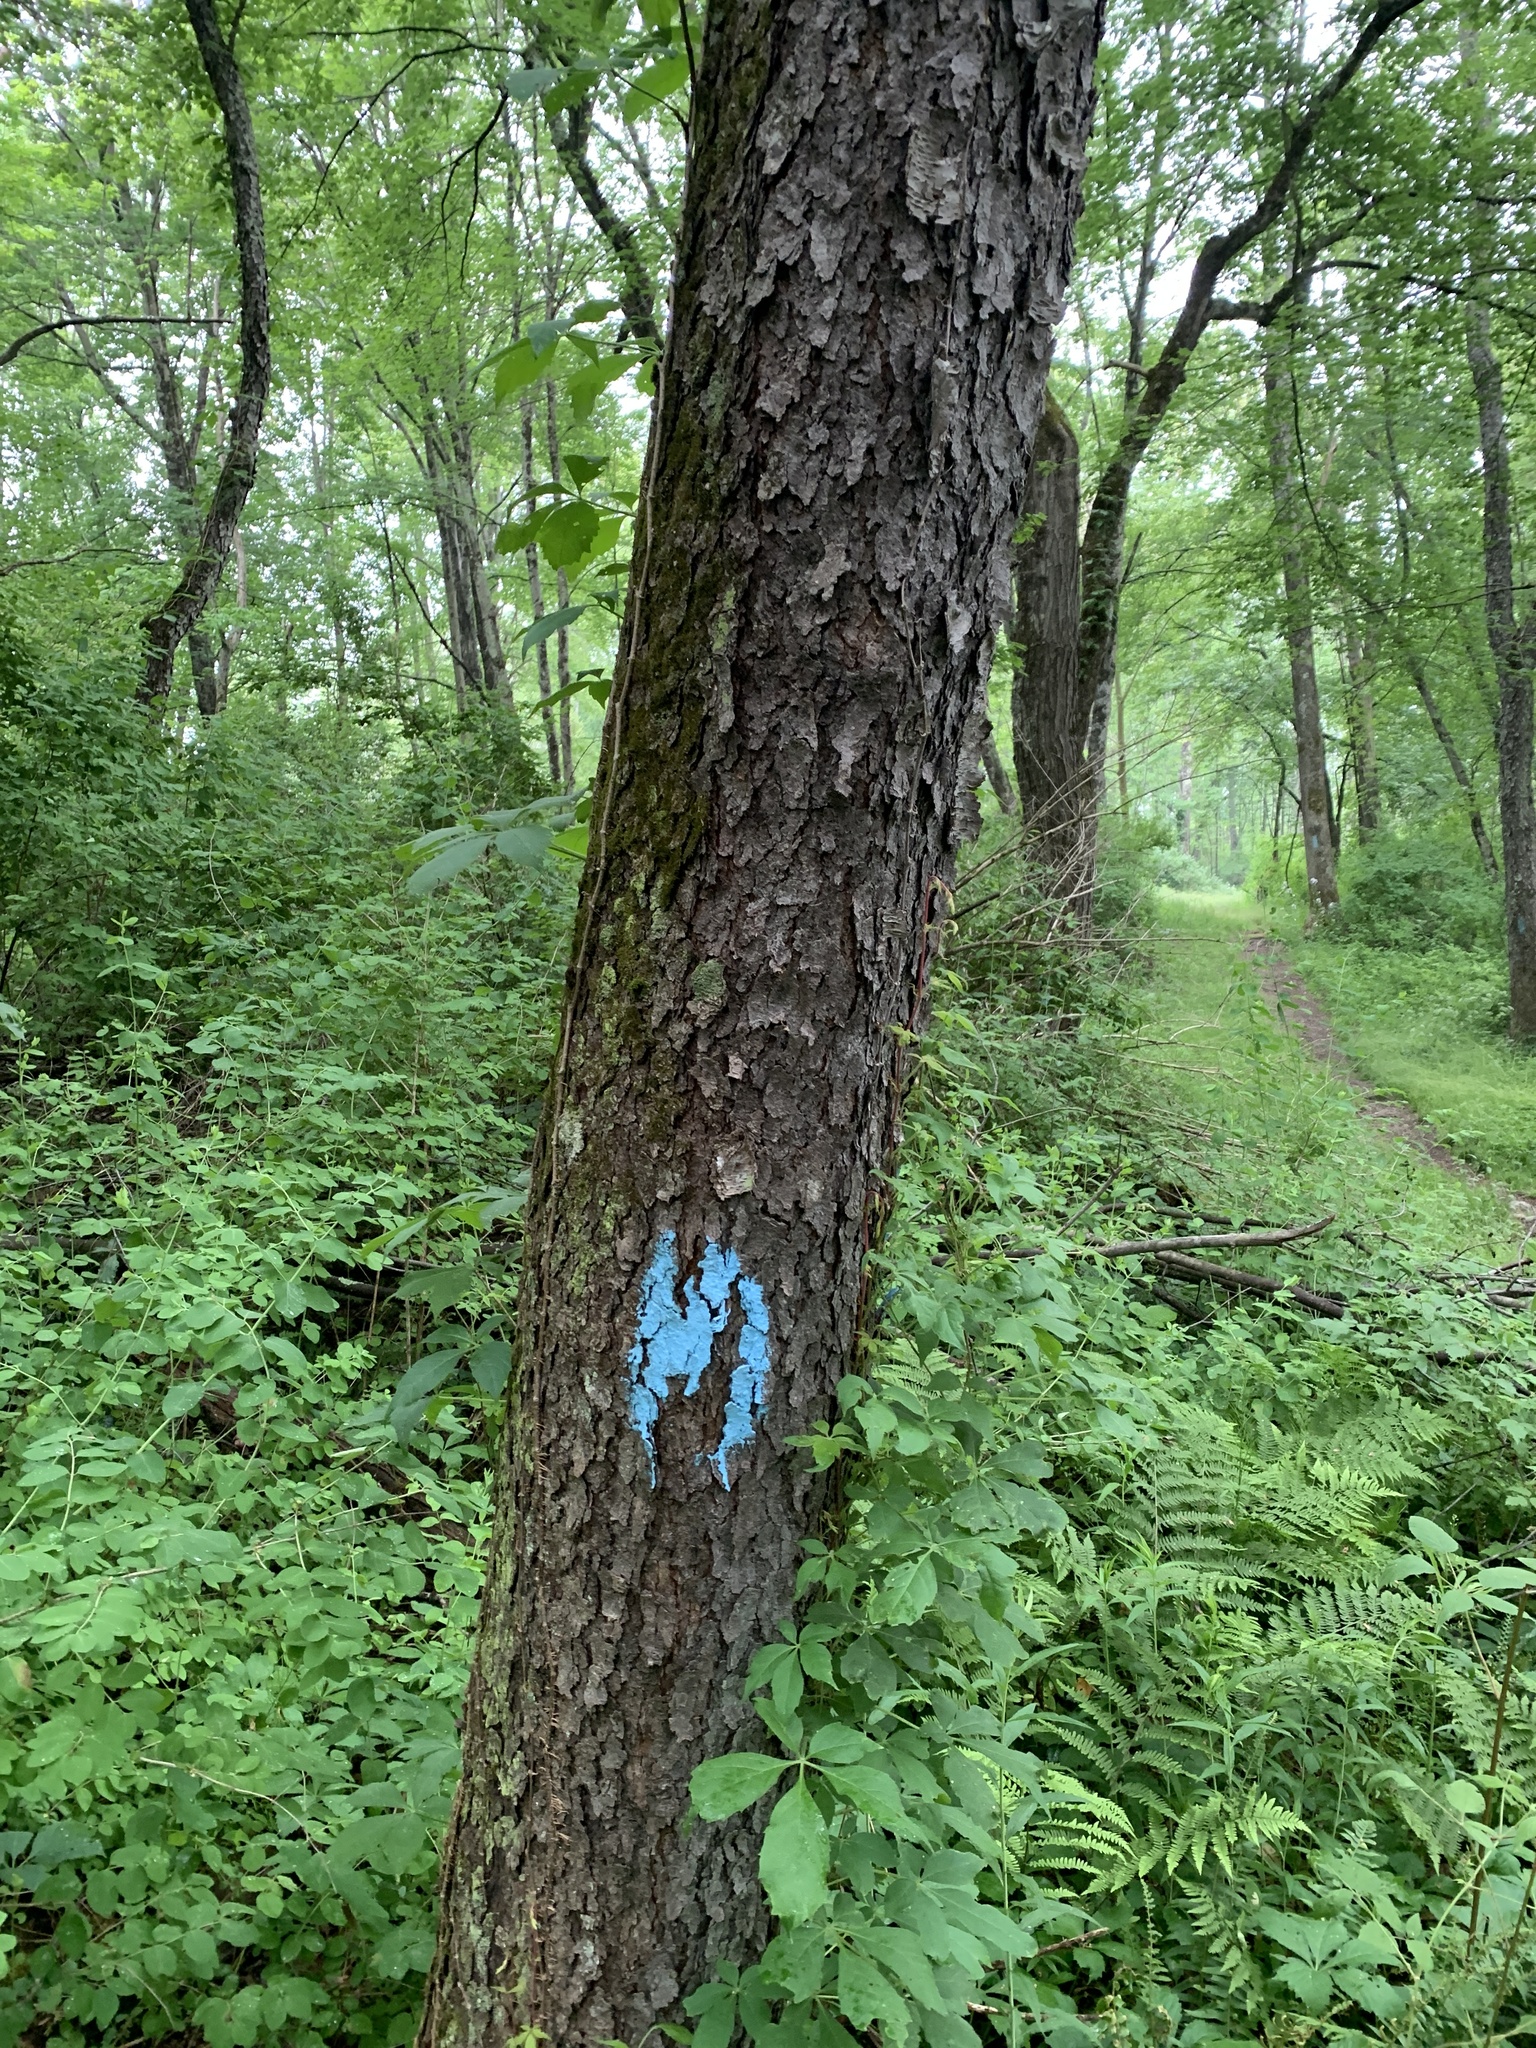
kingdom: Plantae
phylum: Tracheophyta
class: Magnoliopsida
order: Rosales
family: Rosaceae
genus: Prunus
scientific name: Prunus serotina
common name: Black cherry
